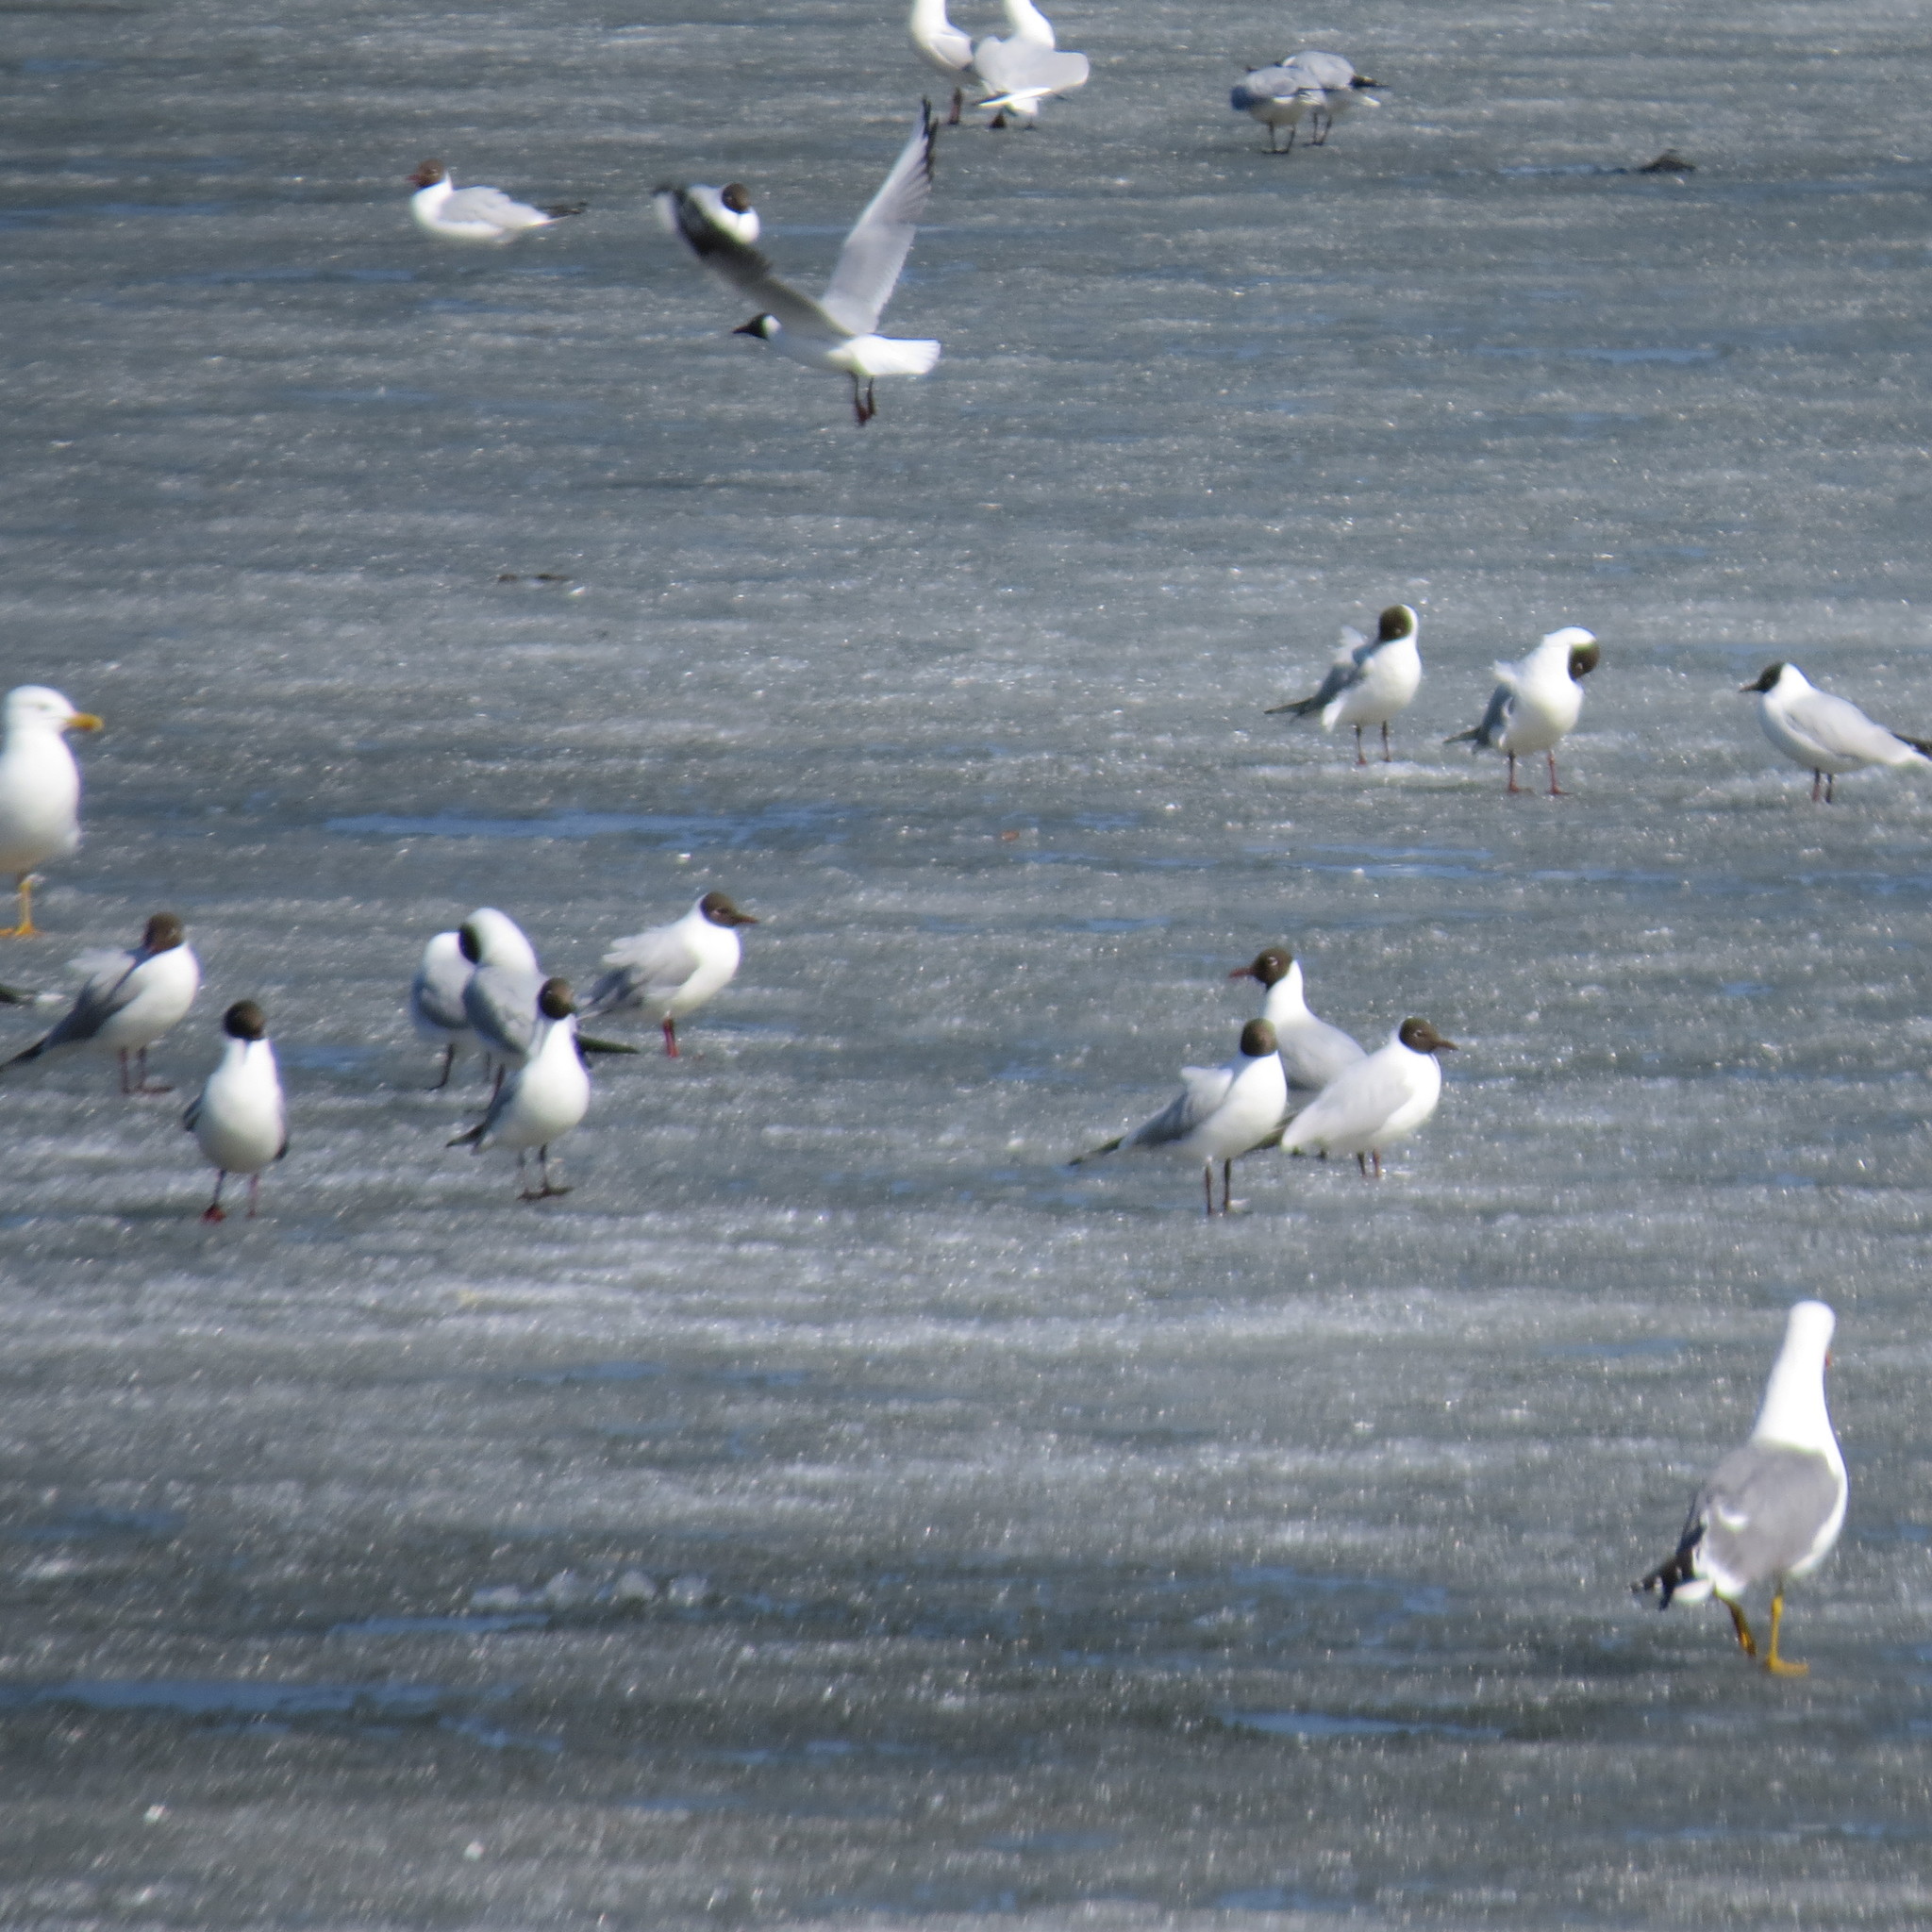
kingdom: Animalia
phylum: Chordata
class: Aves
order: Charadriiformes
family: Laridae
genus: Chroicocephalus
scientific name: Chroicocephalus ridibundus
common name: Black-headed gull
